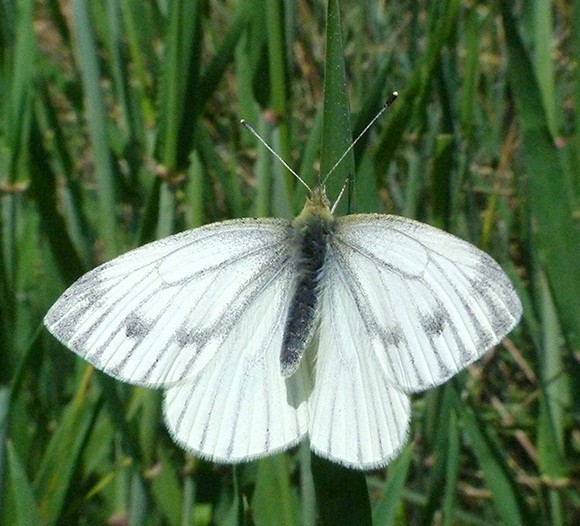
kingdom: Animalia
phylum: Arthropoda
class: Insecta
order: Lepidoptera
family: Pieridae
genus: Pieris
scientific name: Pieris napi
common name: Green-veined white
